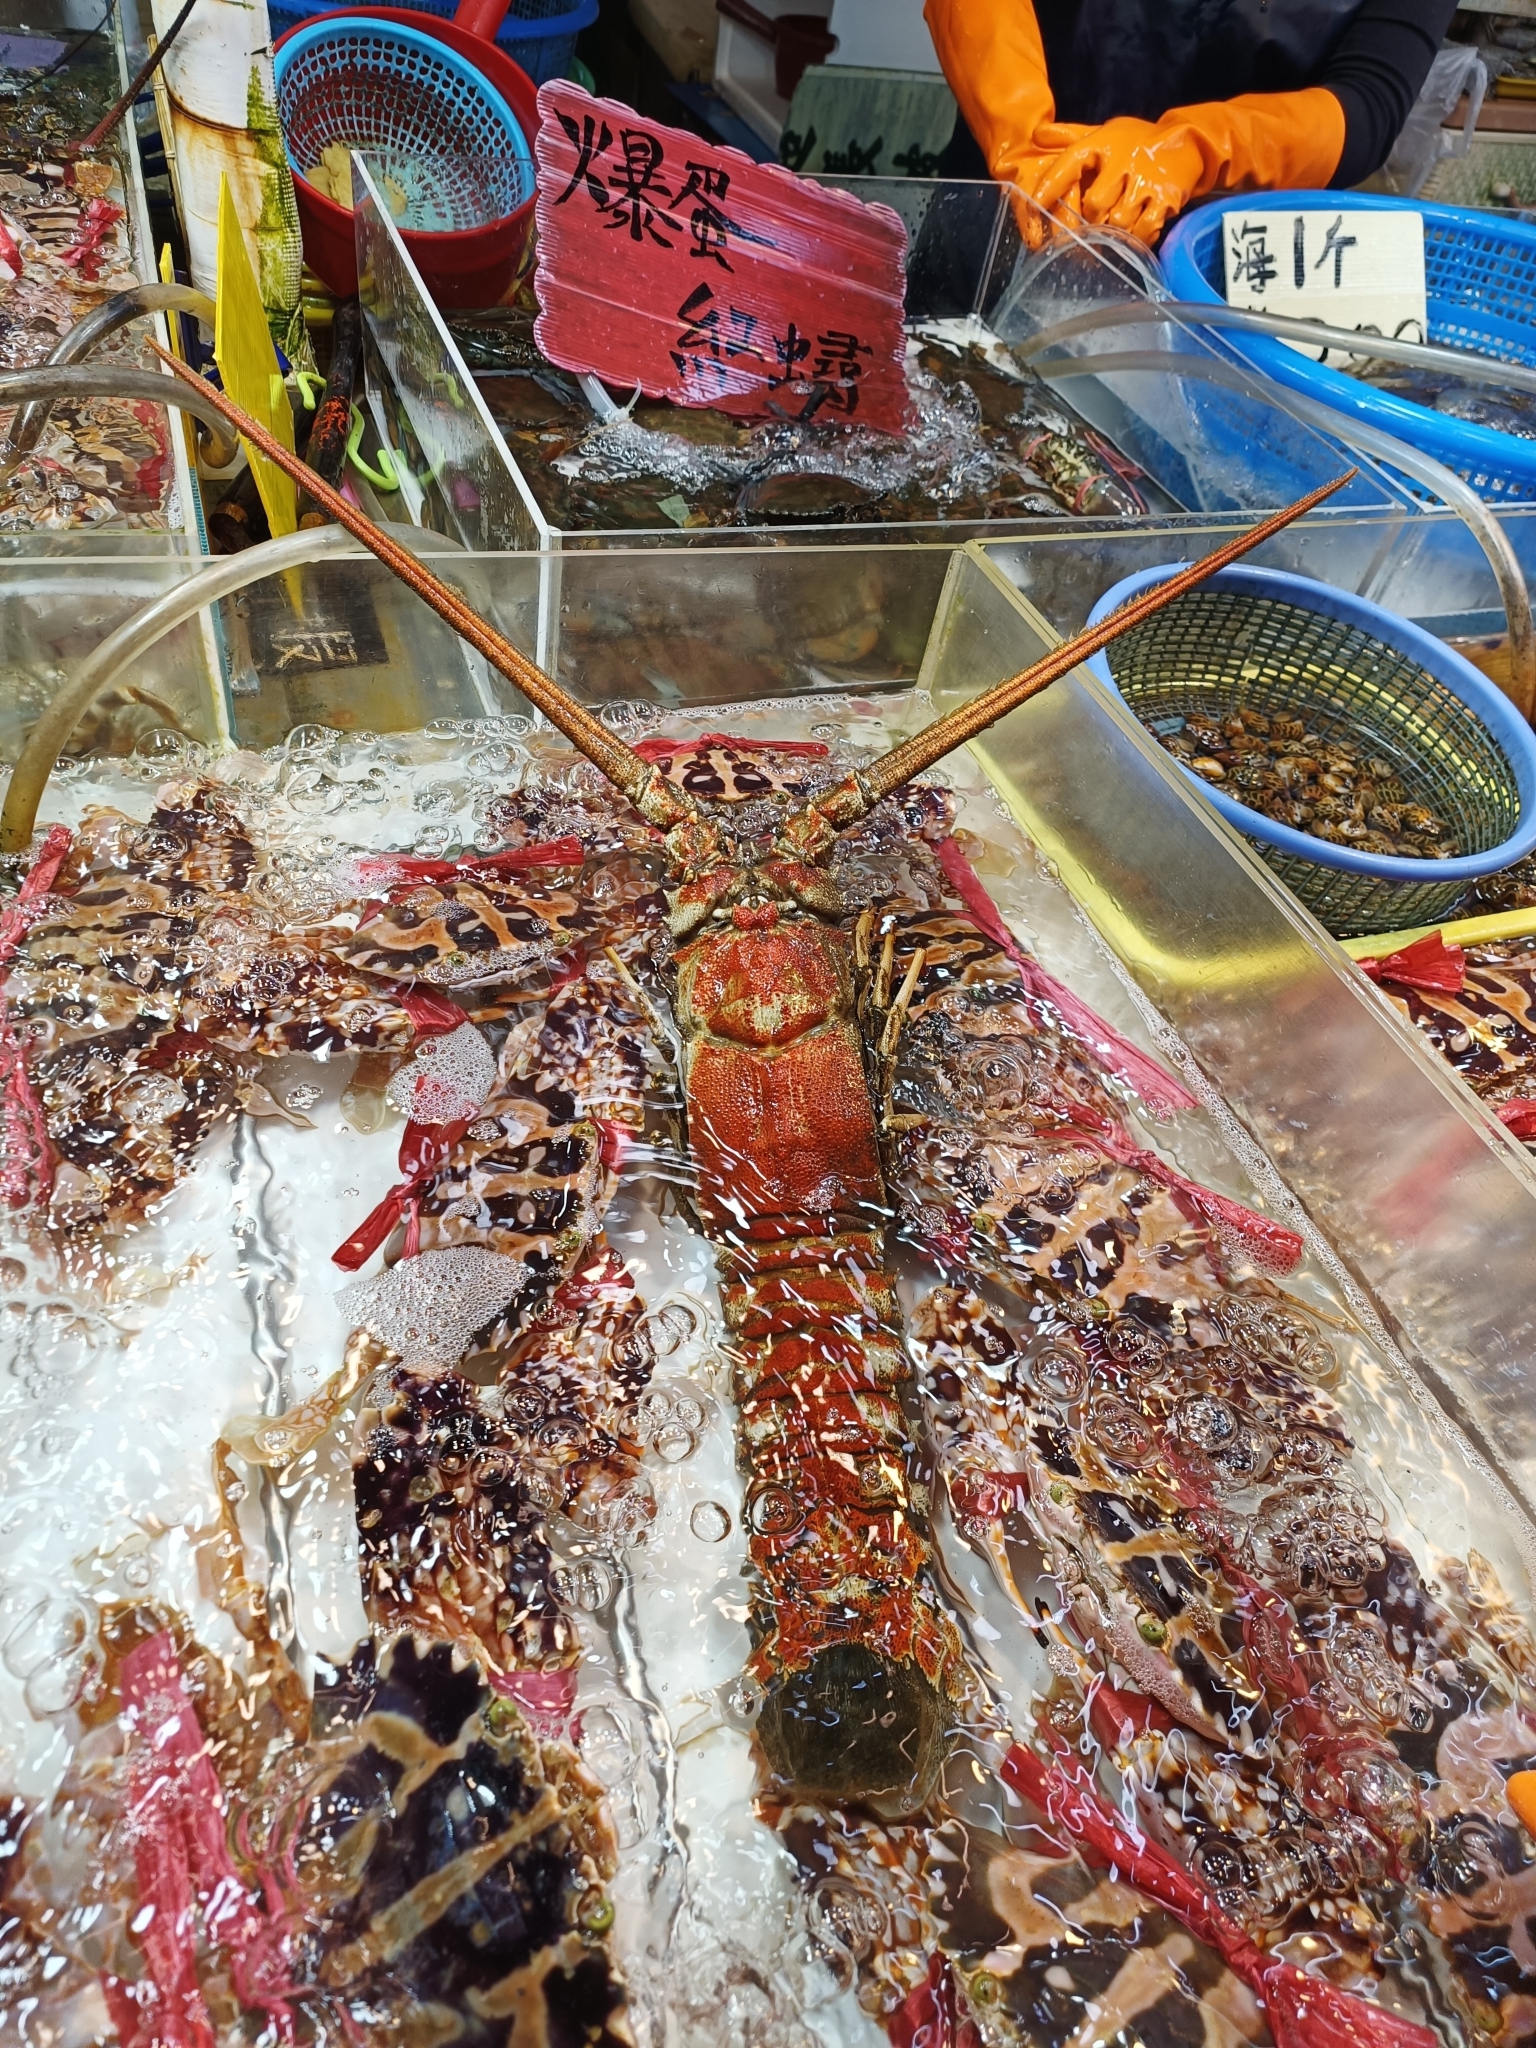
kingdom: Animalia
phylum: Arthropoda
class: Malacostraca
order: Decapoda
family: Palinuridae
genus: Linuparus
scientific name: Linuparus trigonus
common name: Japanese spear lobster
